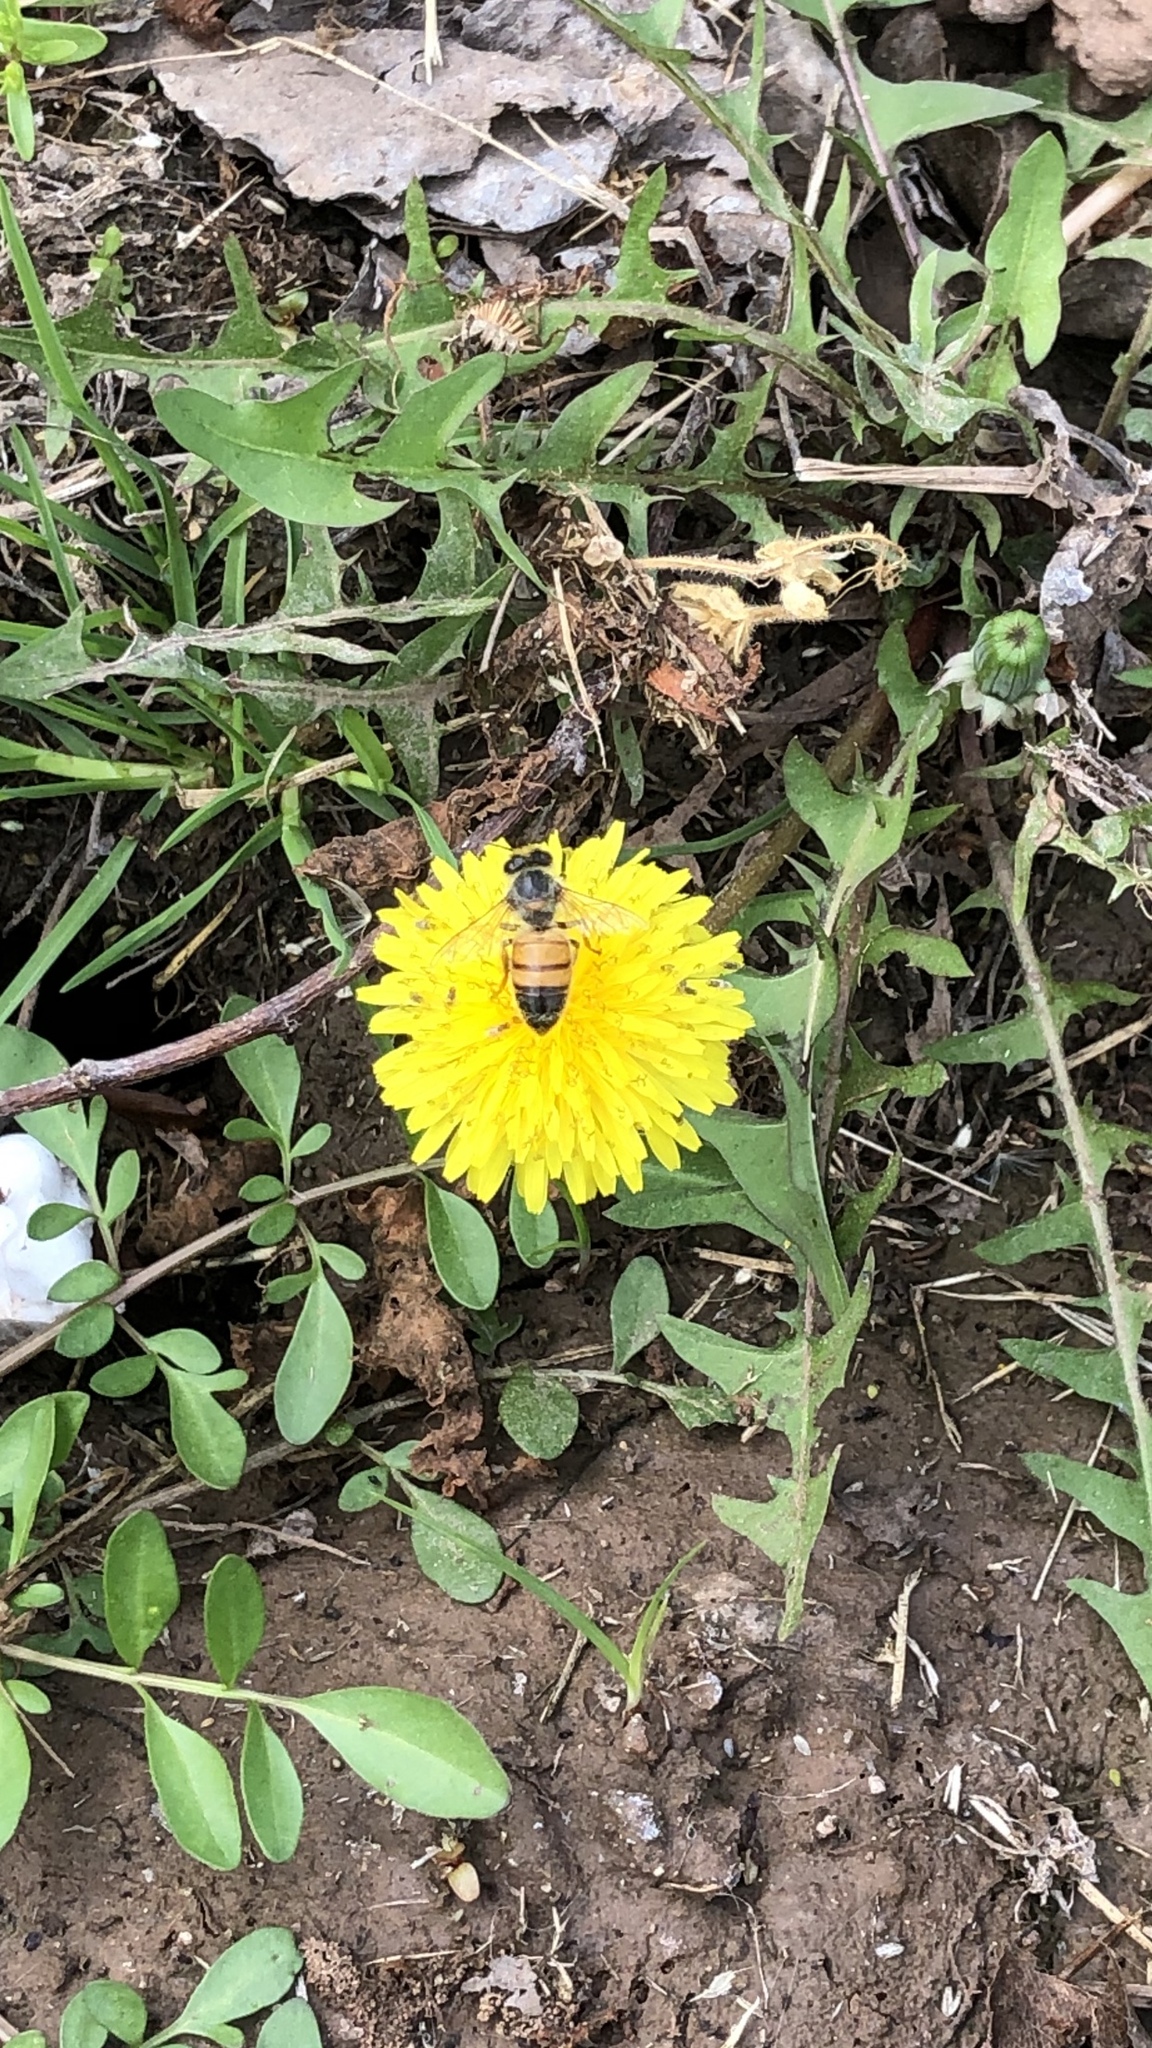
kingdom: Animalia
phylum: Arthropoda
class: Insecta
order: Hymenoptera
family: Apidae
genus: Apis
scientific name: Apis mellifera
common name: Honey bee
